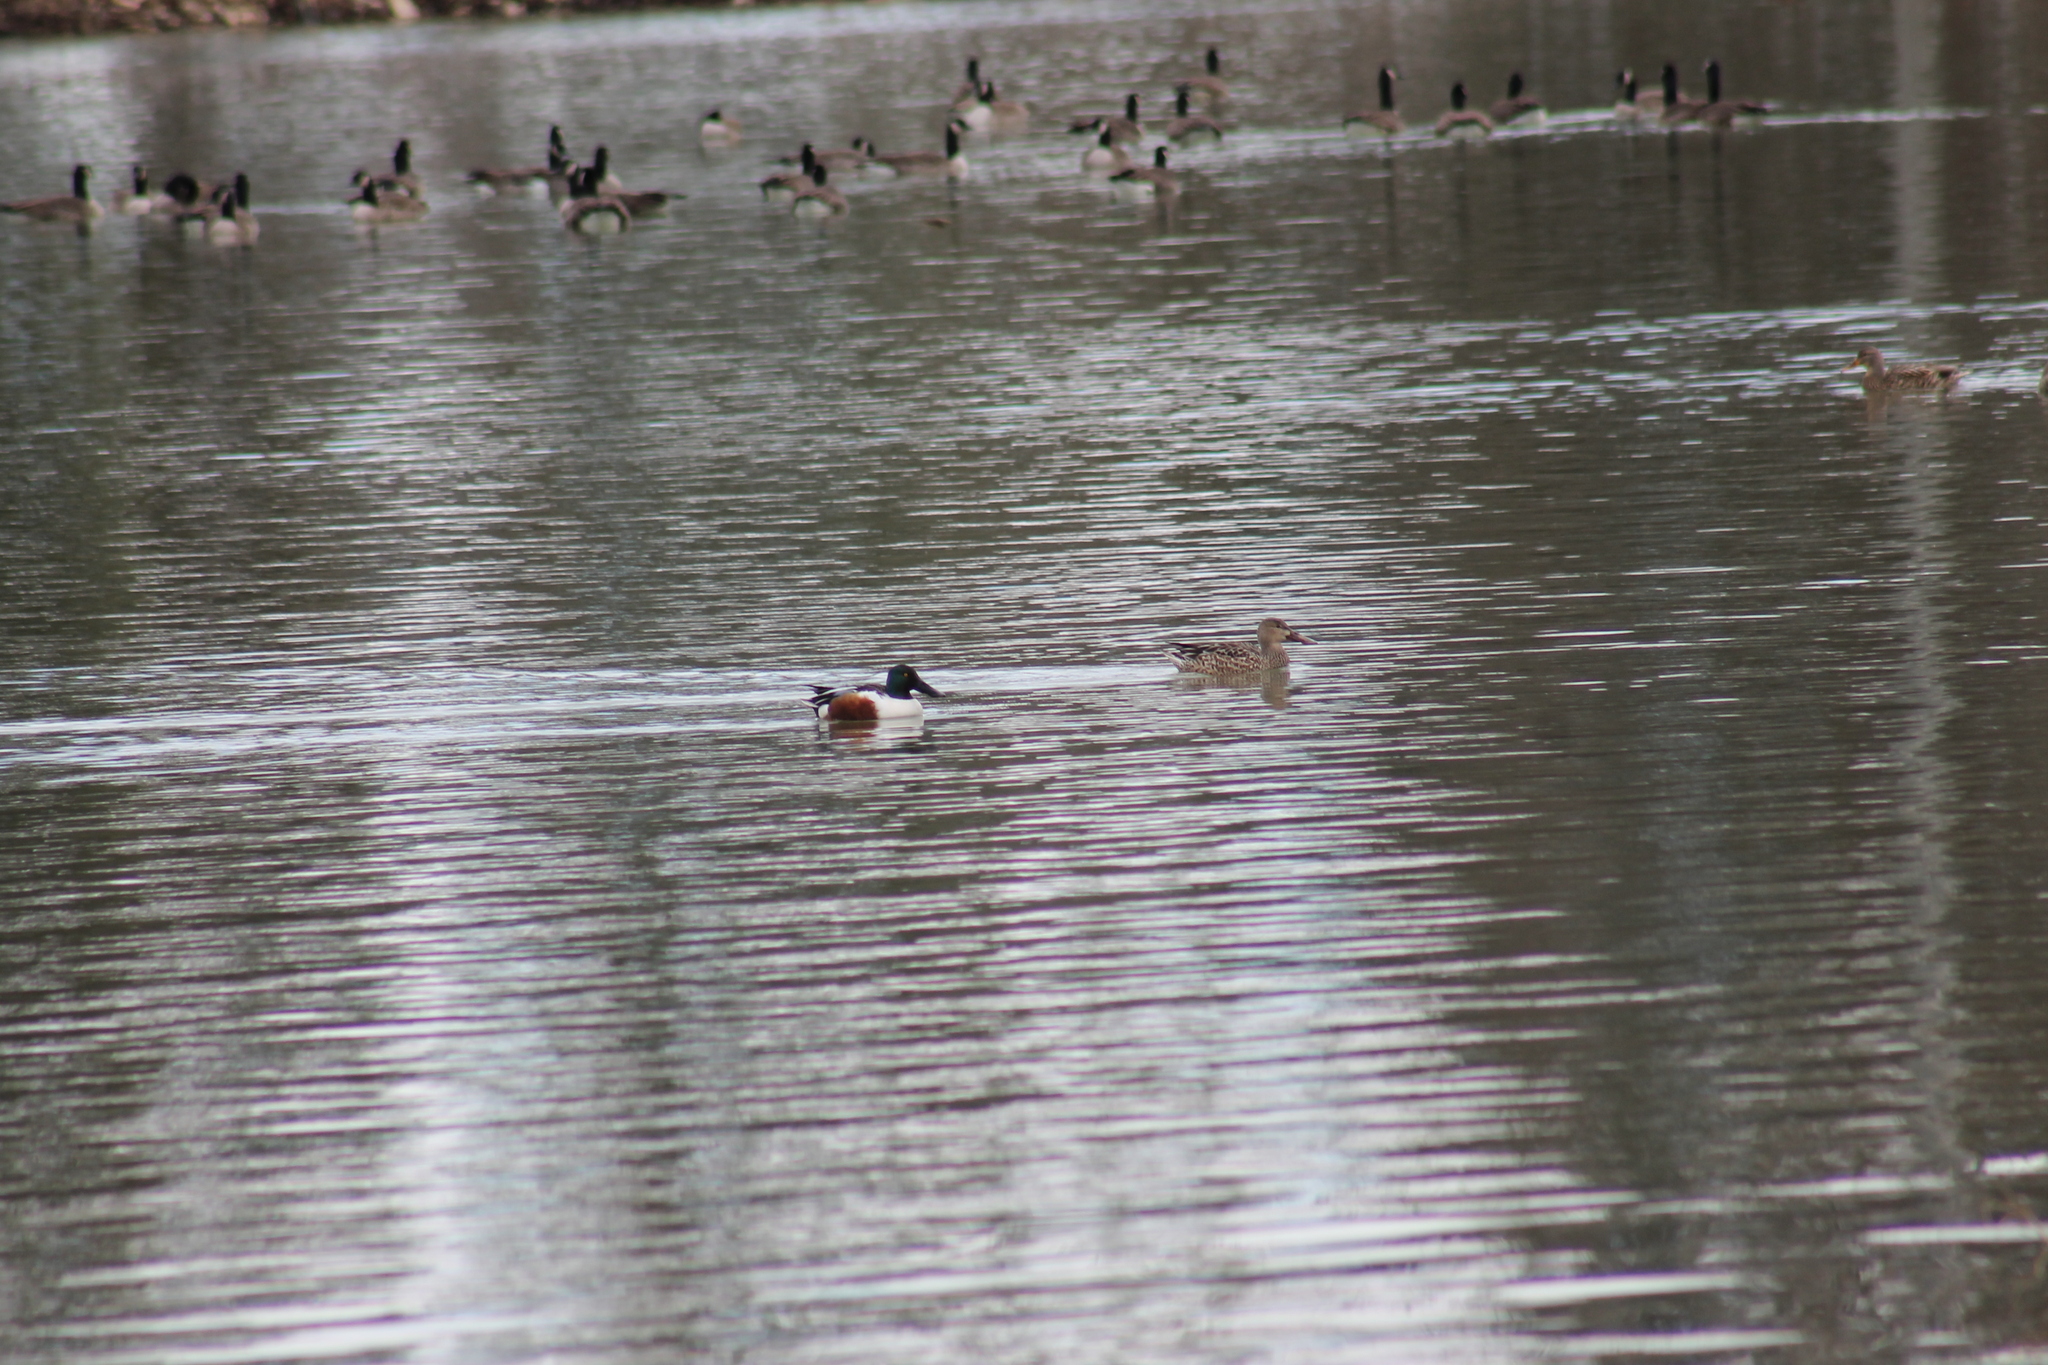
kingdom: Animalia
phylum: Chordata
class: Aves
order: Anseriformes
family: Anatidae
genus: Spatula
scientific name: Spatula clypeata
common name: Northern shoveler
